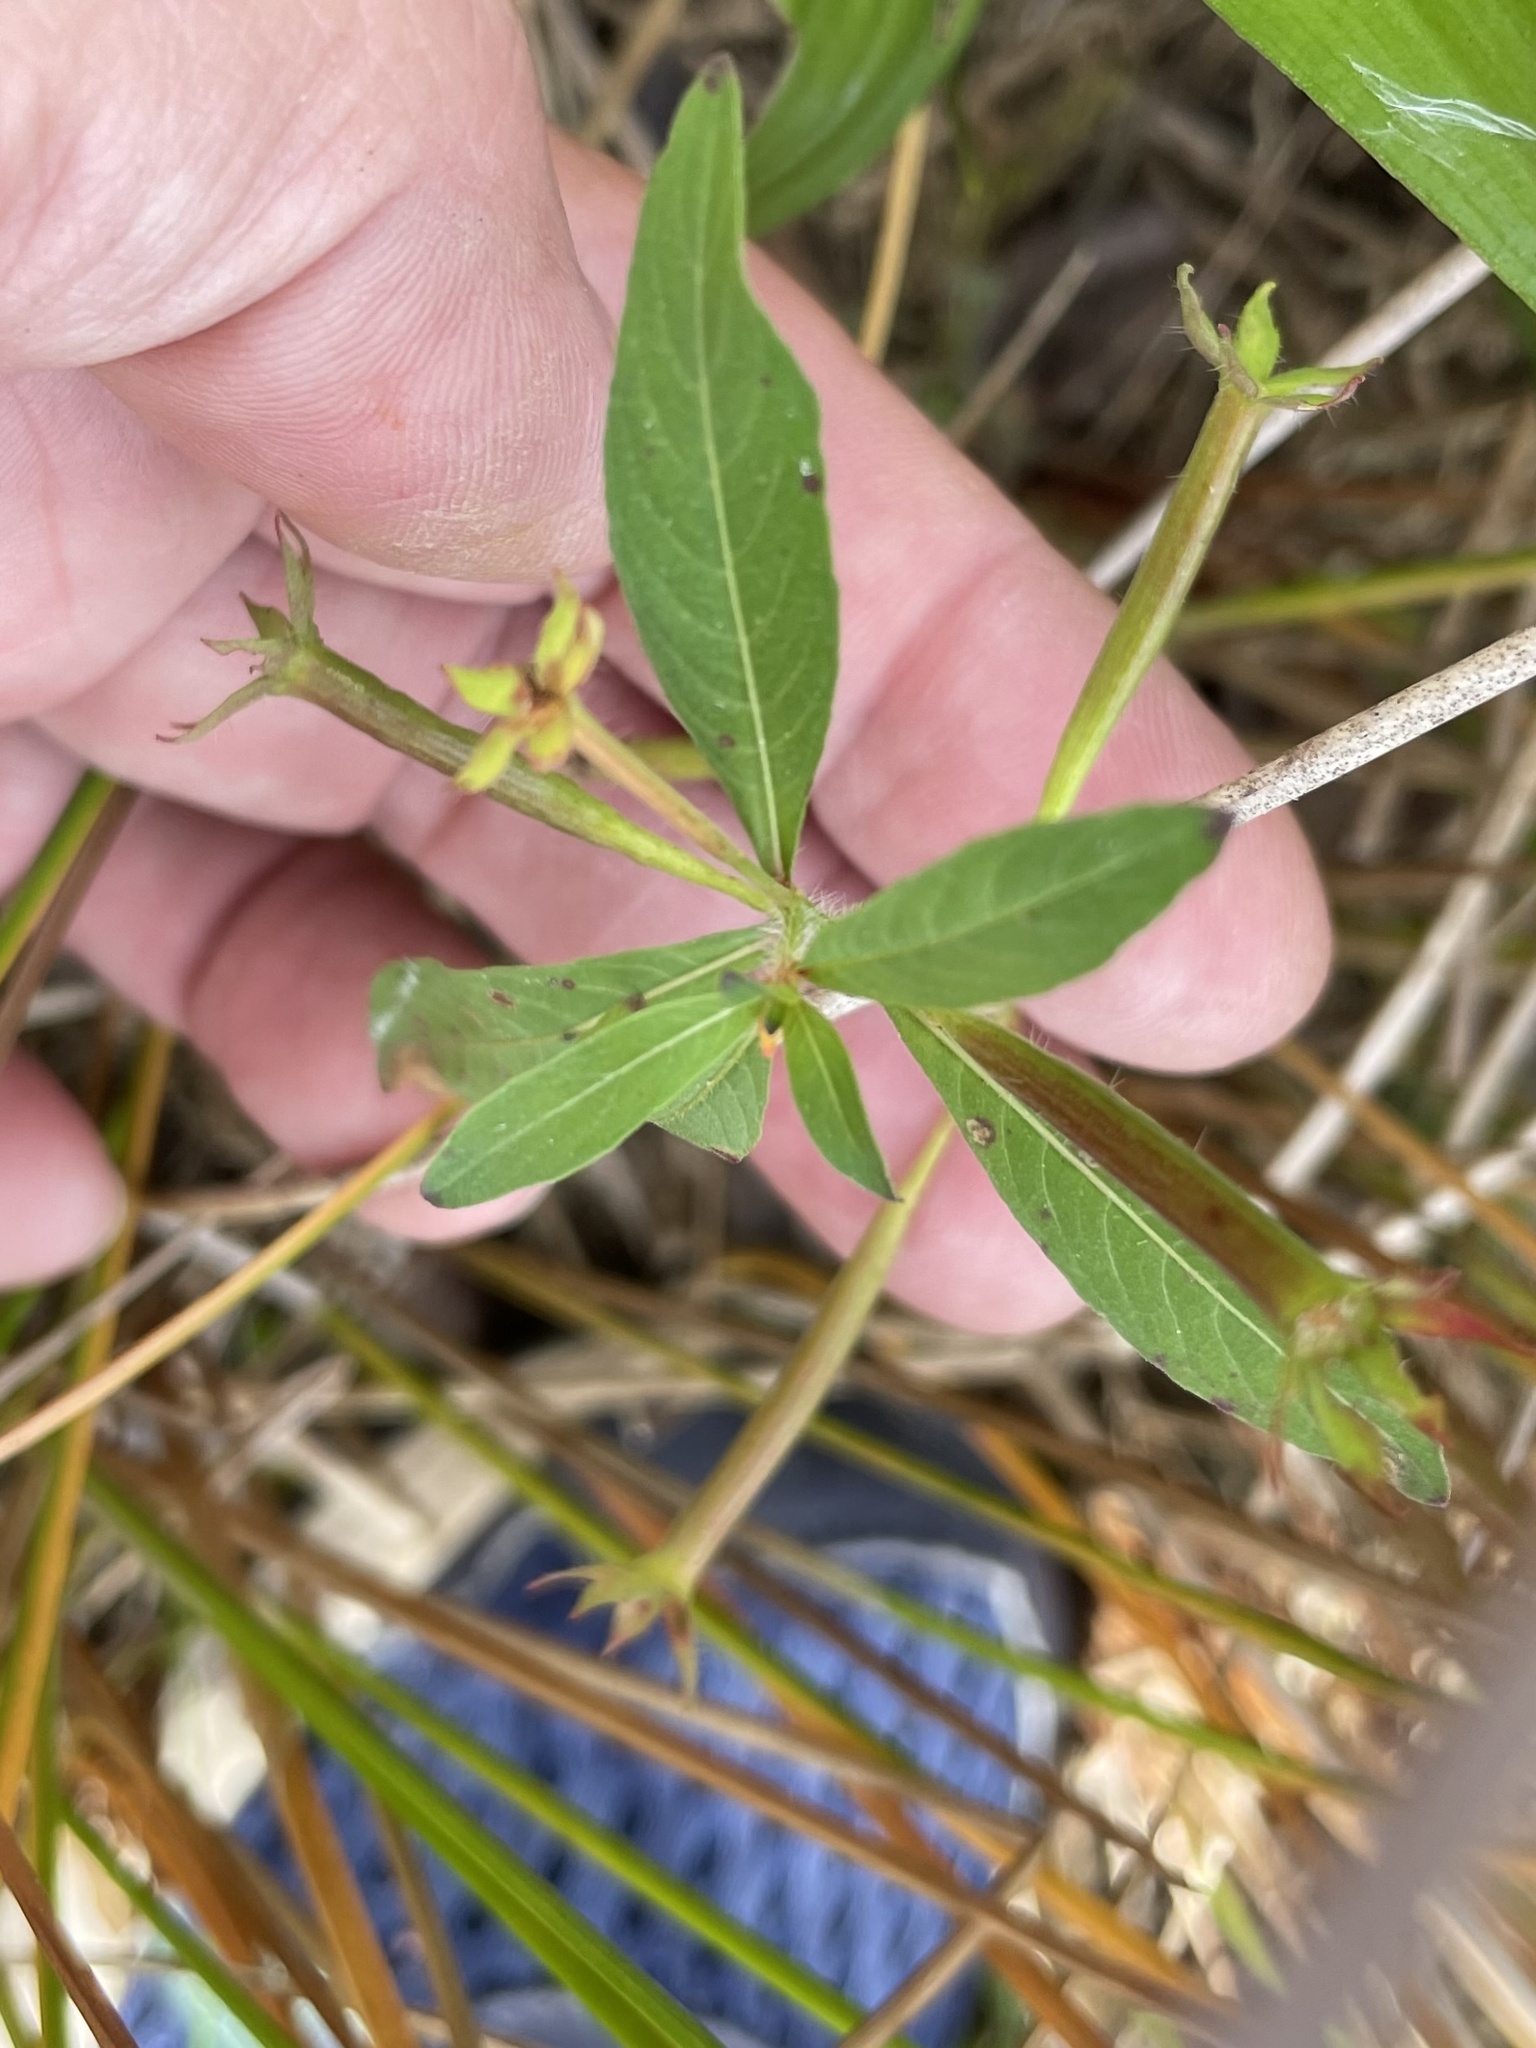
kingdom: Plantae
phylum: Tracheophyta
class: Magnoliopsida
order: Myrtales
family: Onagraceae
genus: Ludwigia
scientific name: Ludwigia leptocarpa
